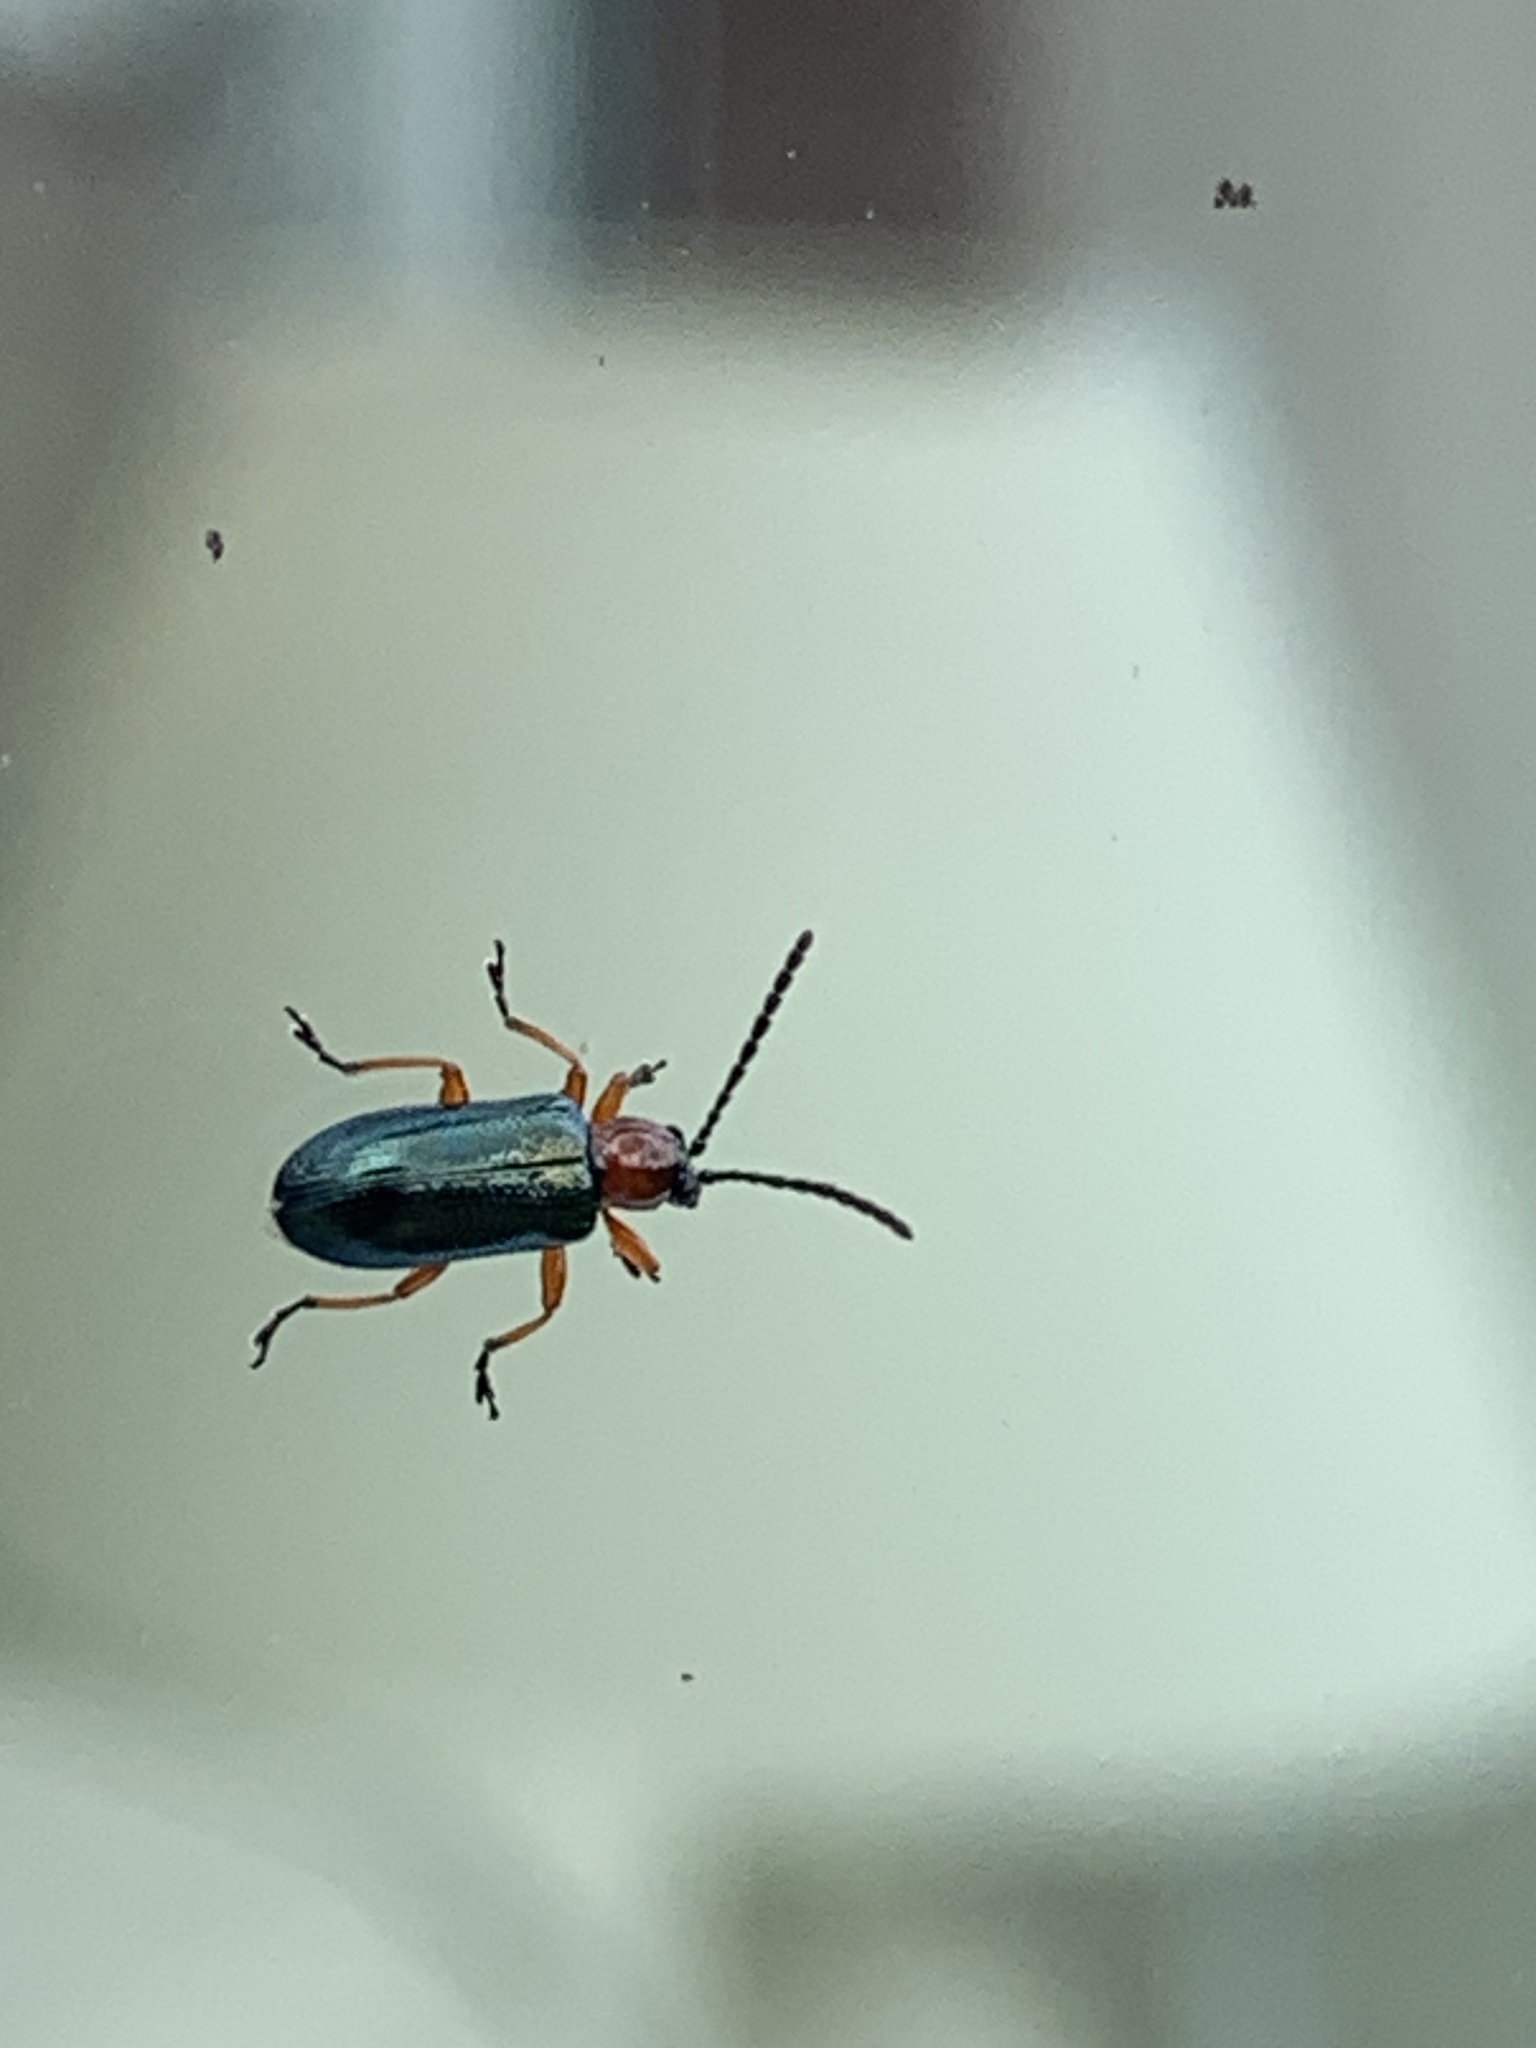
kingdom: Animalia
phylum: Arthropoda
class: Insecta
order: Coleoptera
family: Chrysomelidae
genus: Oulema
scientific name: Oulema
